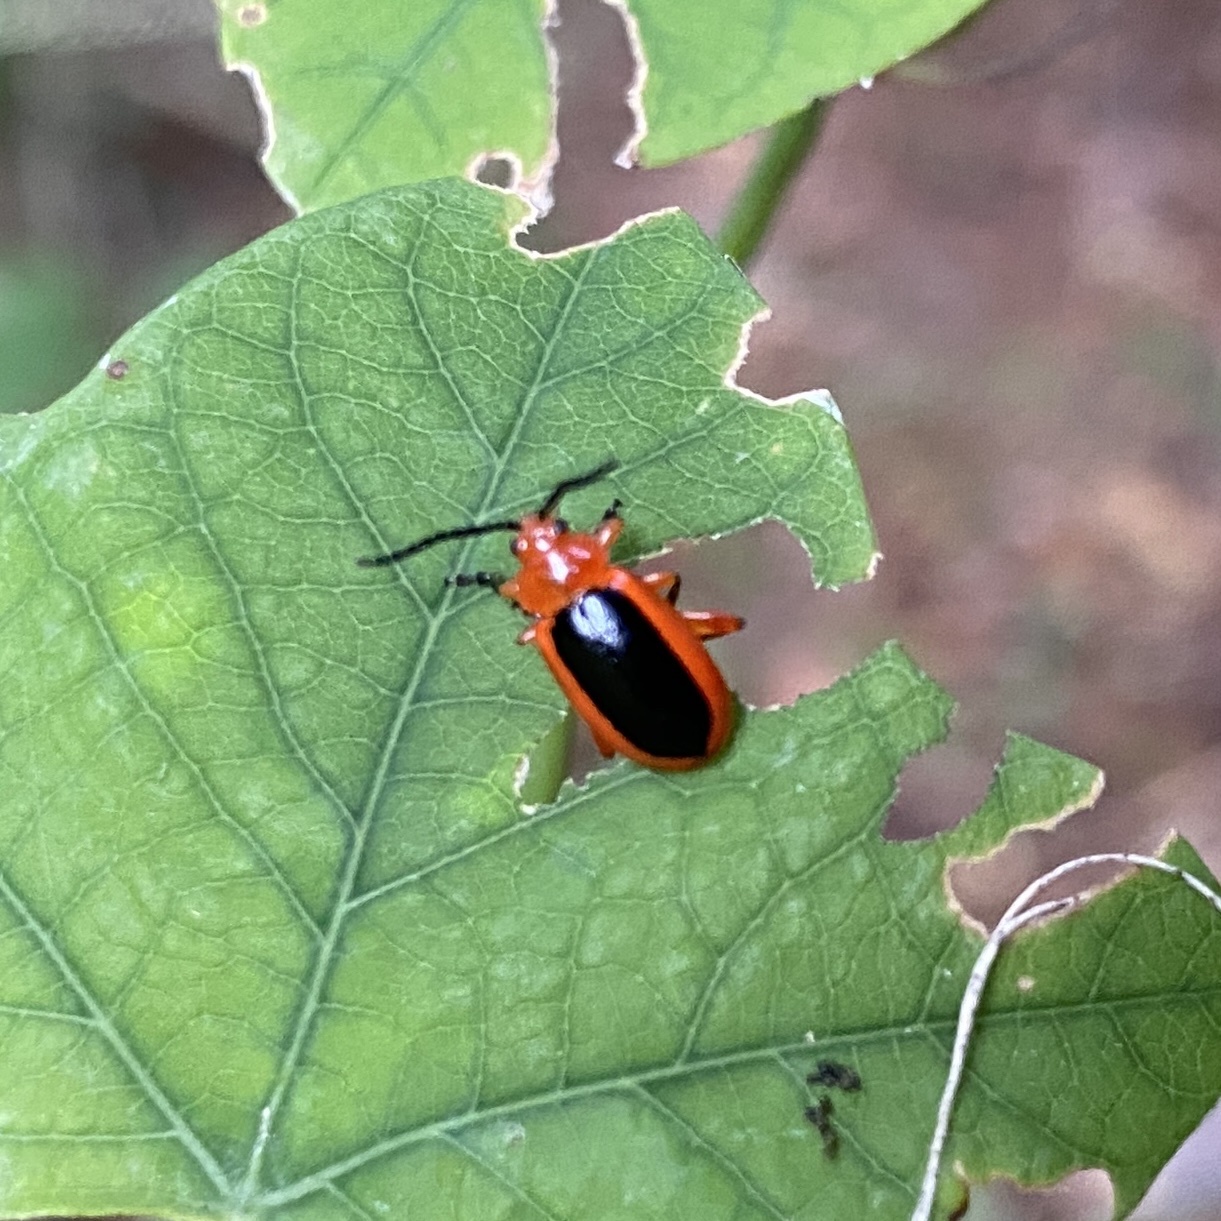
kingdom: Animalia
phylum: Arthropoda
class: Insecta
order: Coleoptera
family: Chrysomelidae
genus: Disonycha
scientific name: Disonycha discoidea
